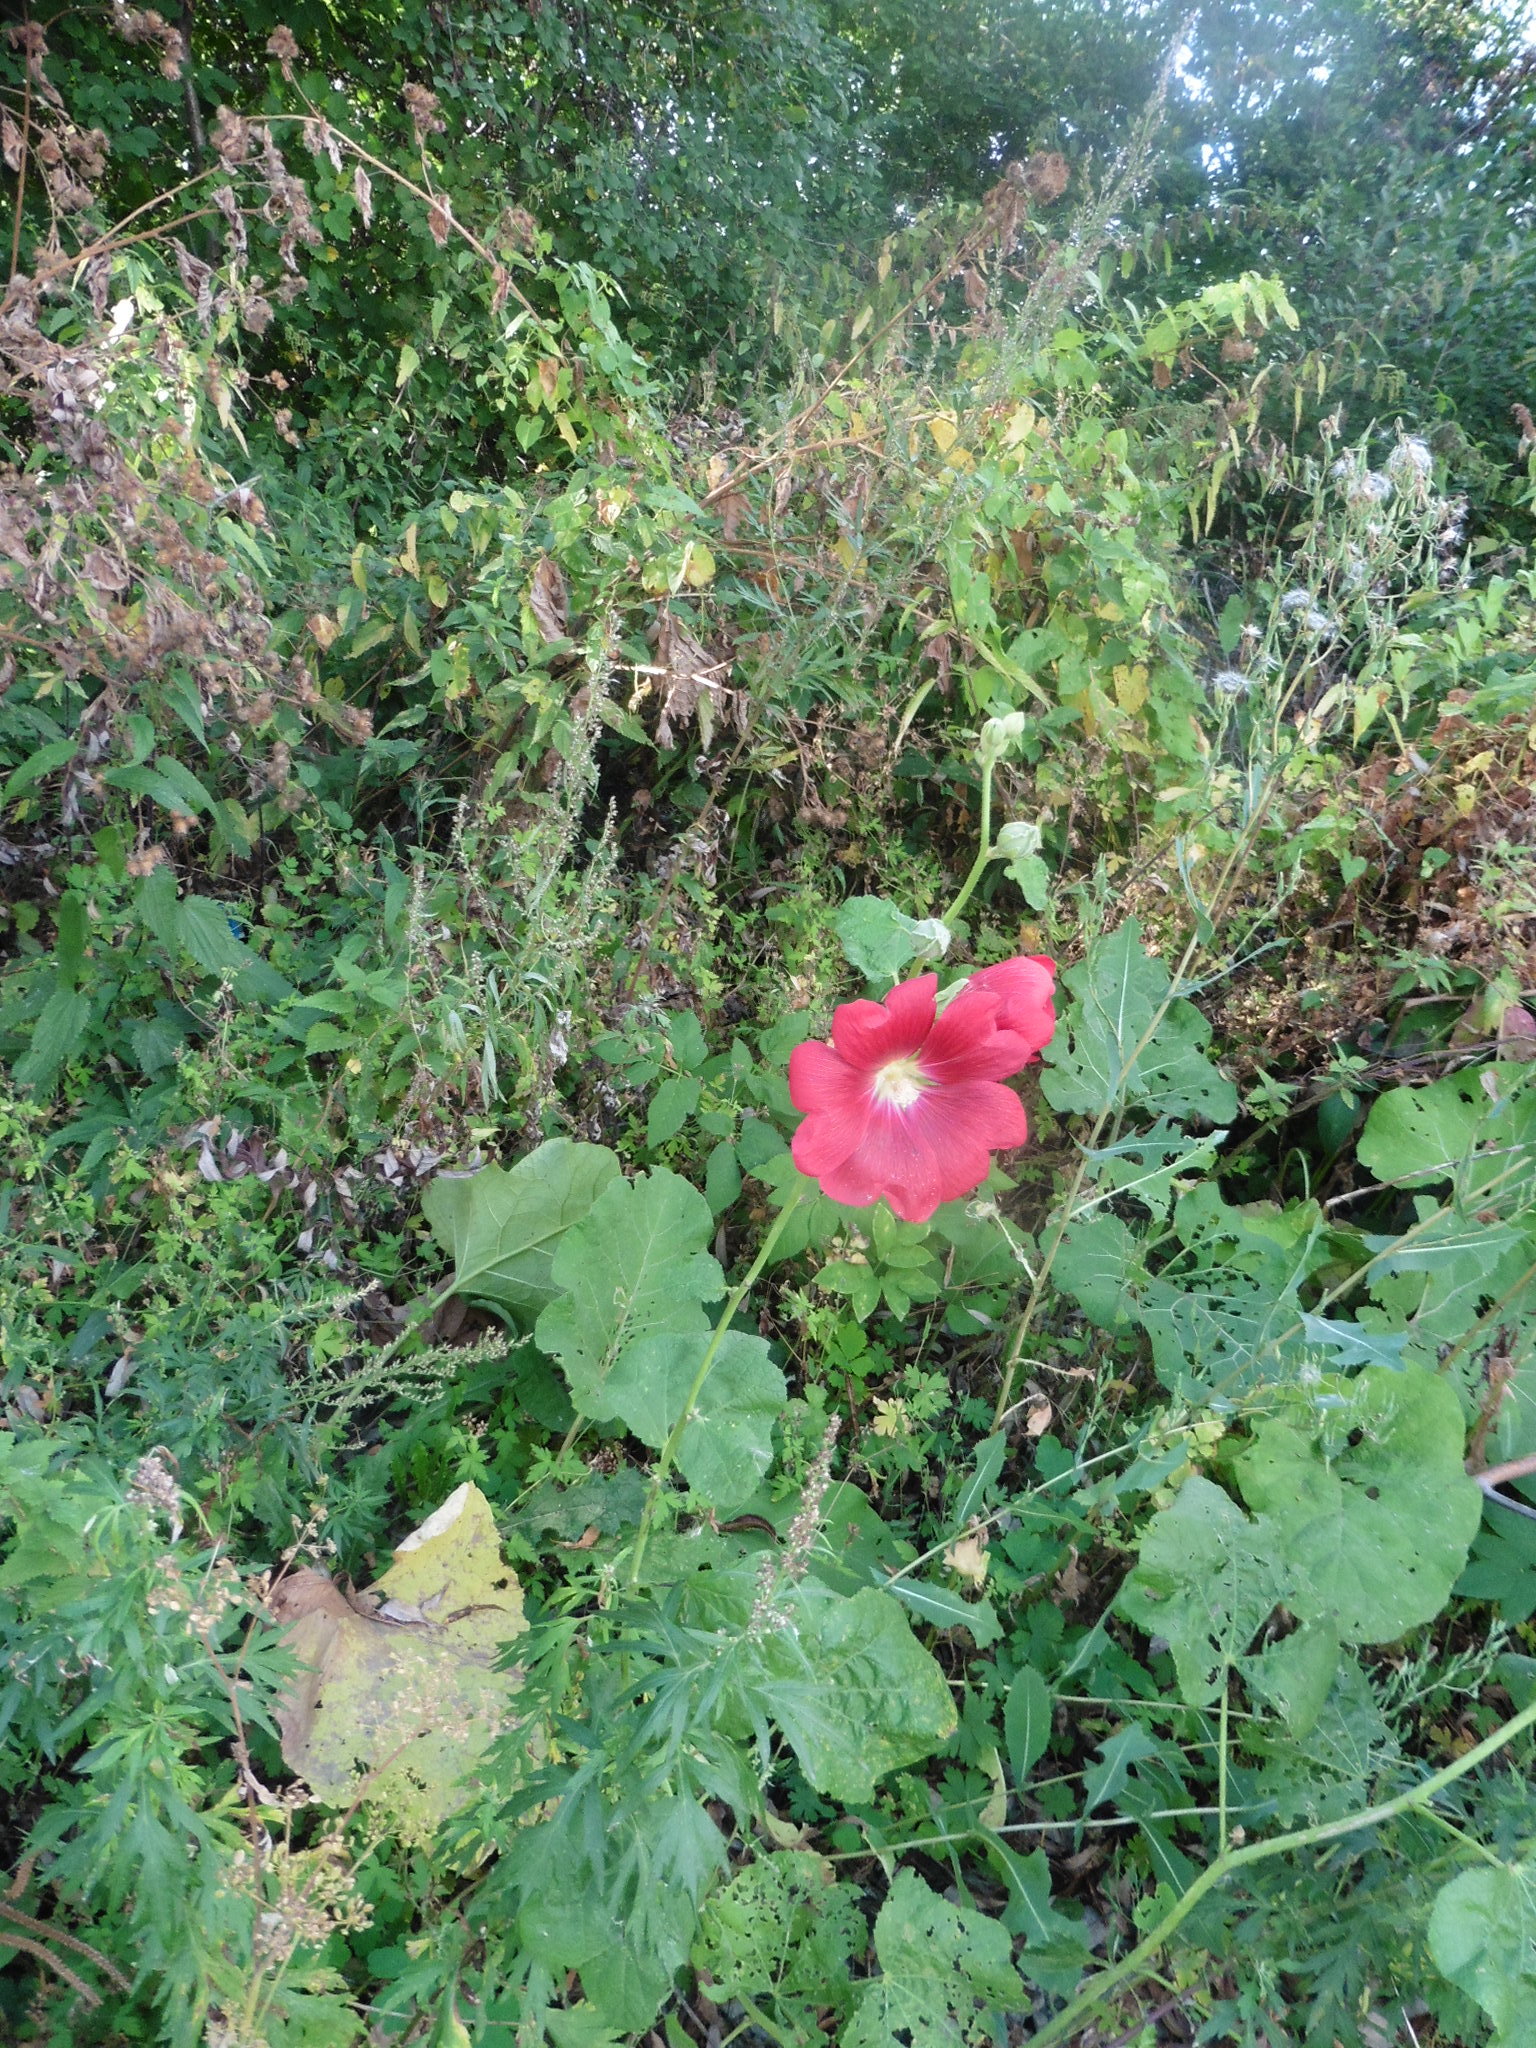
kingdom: Plantae
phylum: Tracheophyta
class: Magnoliopsida
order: Malvales
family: Malvaceae
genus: Alcea
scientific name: Alcea rosea
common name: Hollyhock
